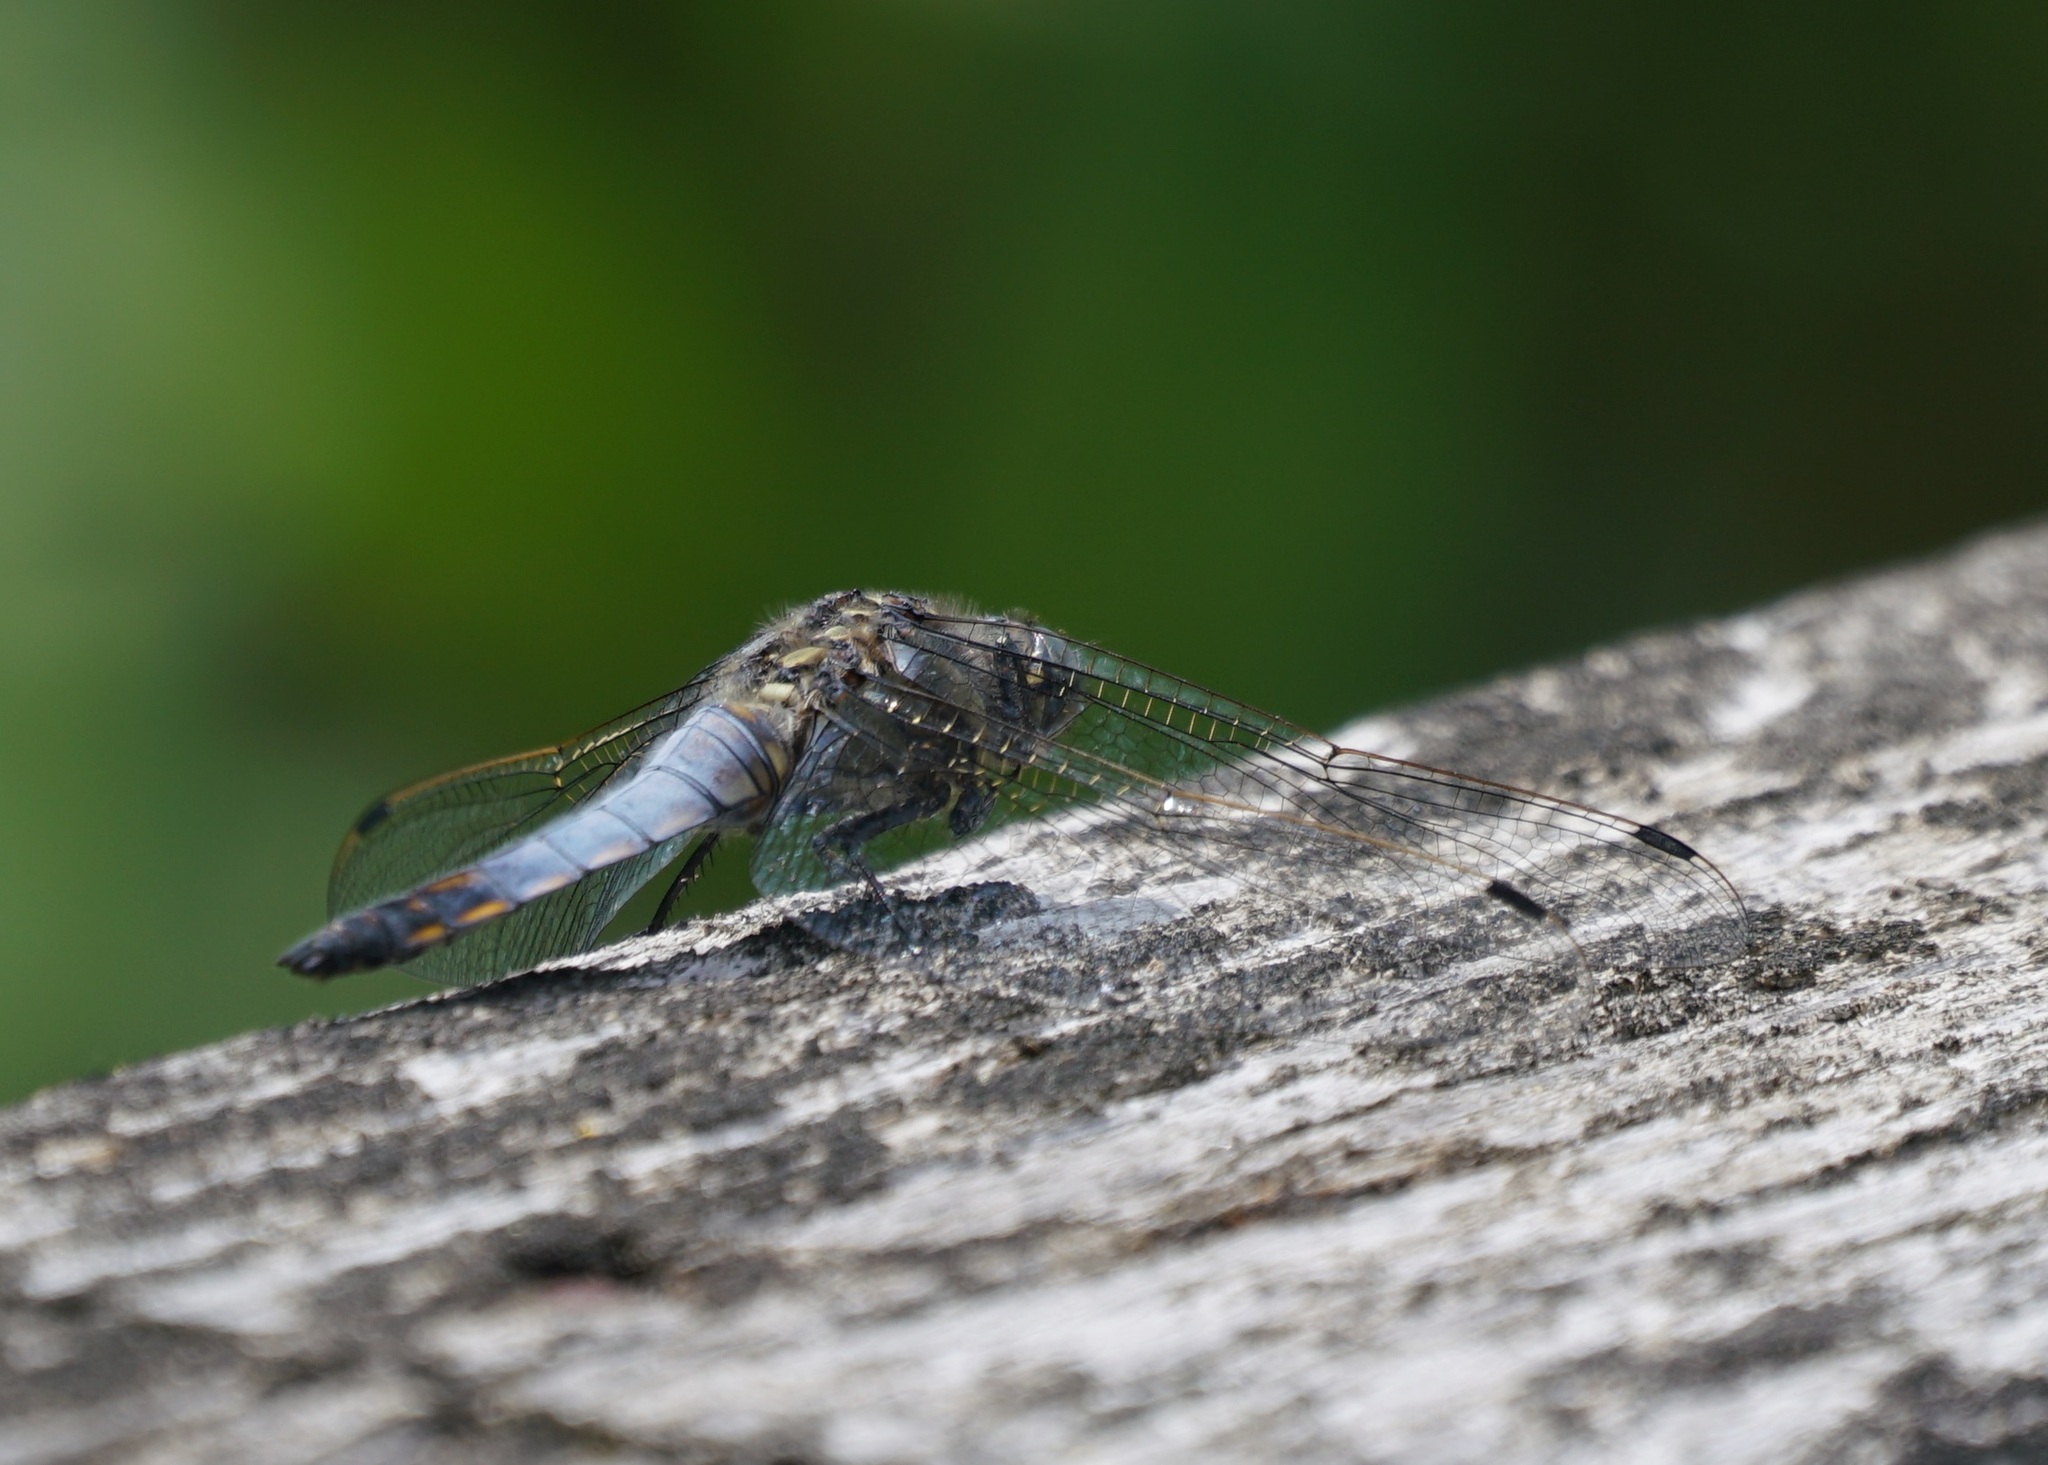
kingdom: Animalia
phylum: Arthropoda
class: Insecta
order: Odonata
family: Libellulidae
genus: Orthetrum
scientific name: Orthetrum cancellatum
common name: Black-tailed skimmer
